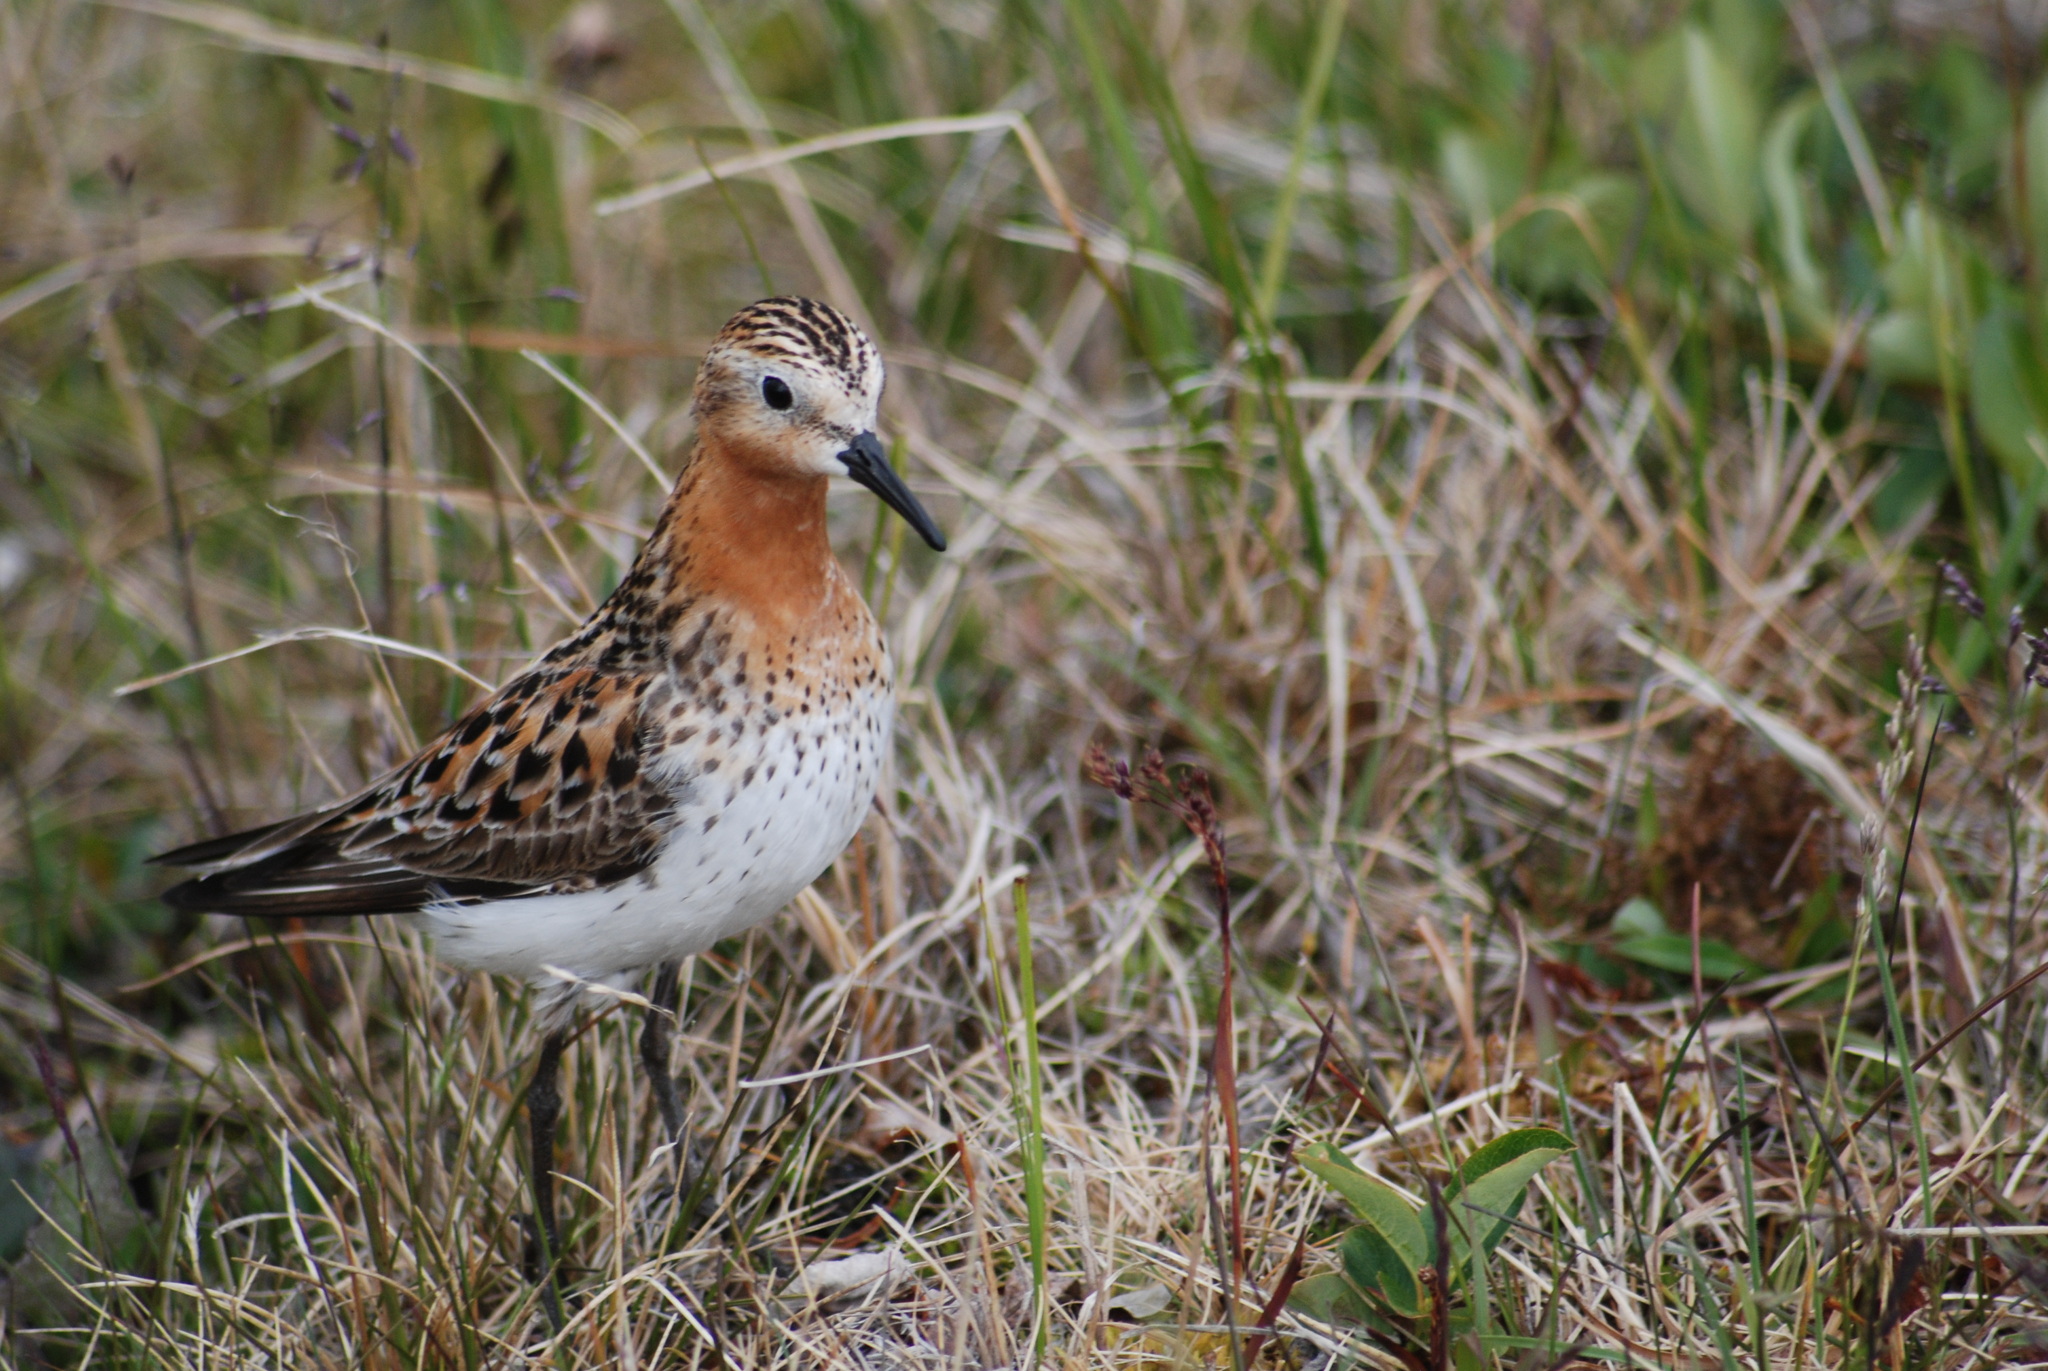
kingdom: Animalia
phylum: Chordata
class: Aves
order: Charadriiformes
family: Scolopacidae
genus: Calidris
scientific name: Calidris ruficollis
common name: Red-necked stint
